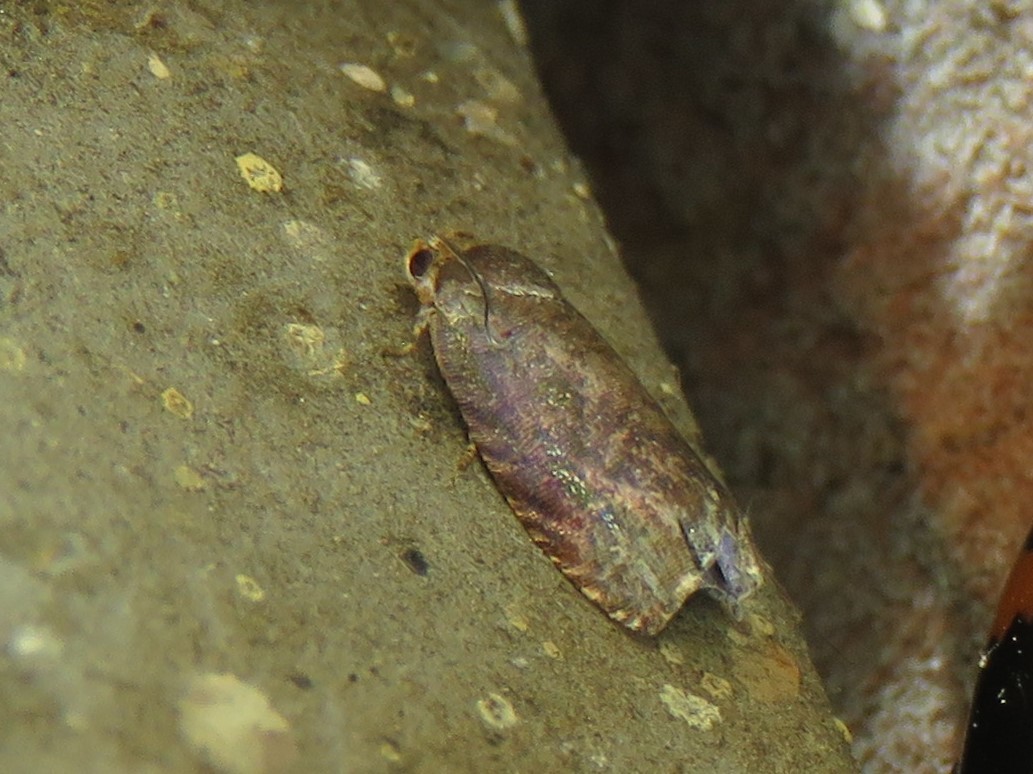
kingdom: Animalia
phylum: Arthropoda
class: Insecta
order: Lepidoptera
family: Tortricidae
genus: Cydia
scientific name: Cydia latiferreana
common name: Filbertworm moth
